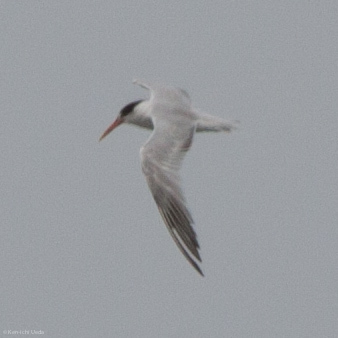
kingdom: Animalia
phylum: Chordata
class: Aves
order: Charadriiformes
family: Laridae
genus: Thalasseus
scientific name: Thalasseus elegans
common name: Elegant tern
